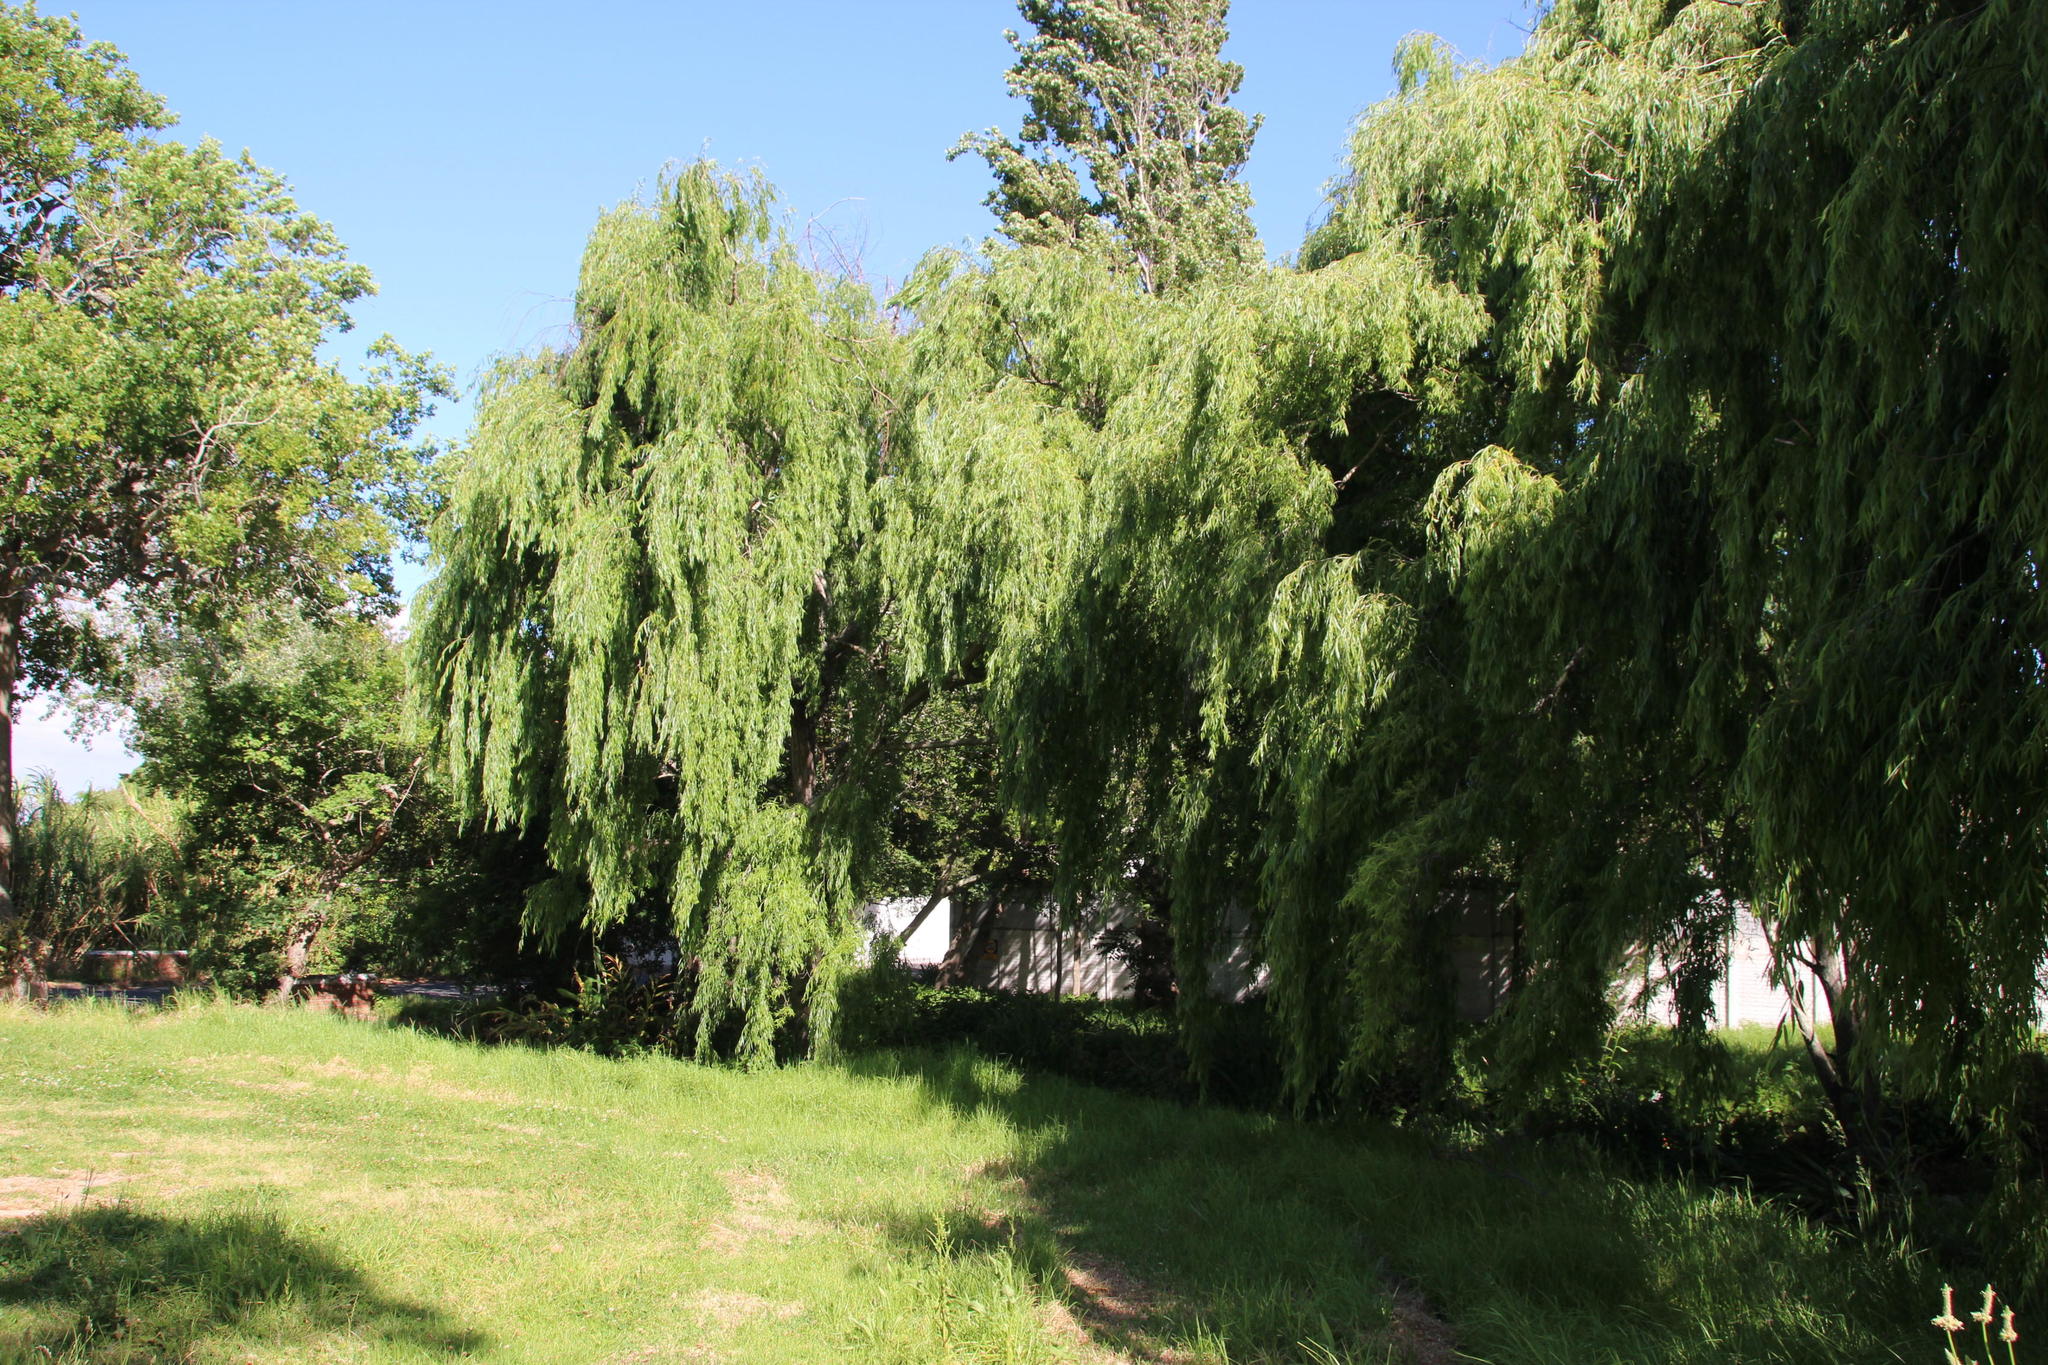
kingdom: Plantae
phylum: Tracheophyta
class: Magnoliopsida
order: Malpighiales
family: Salicaceae
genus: Salix
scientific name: Salix babylonica
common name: Weeping willow
